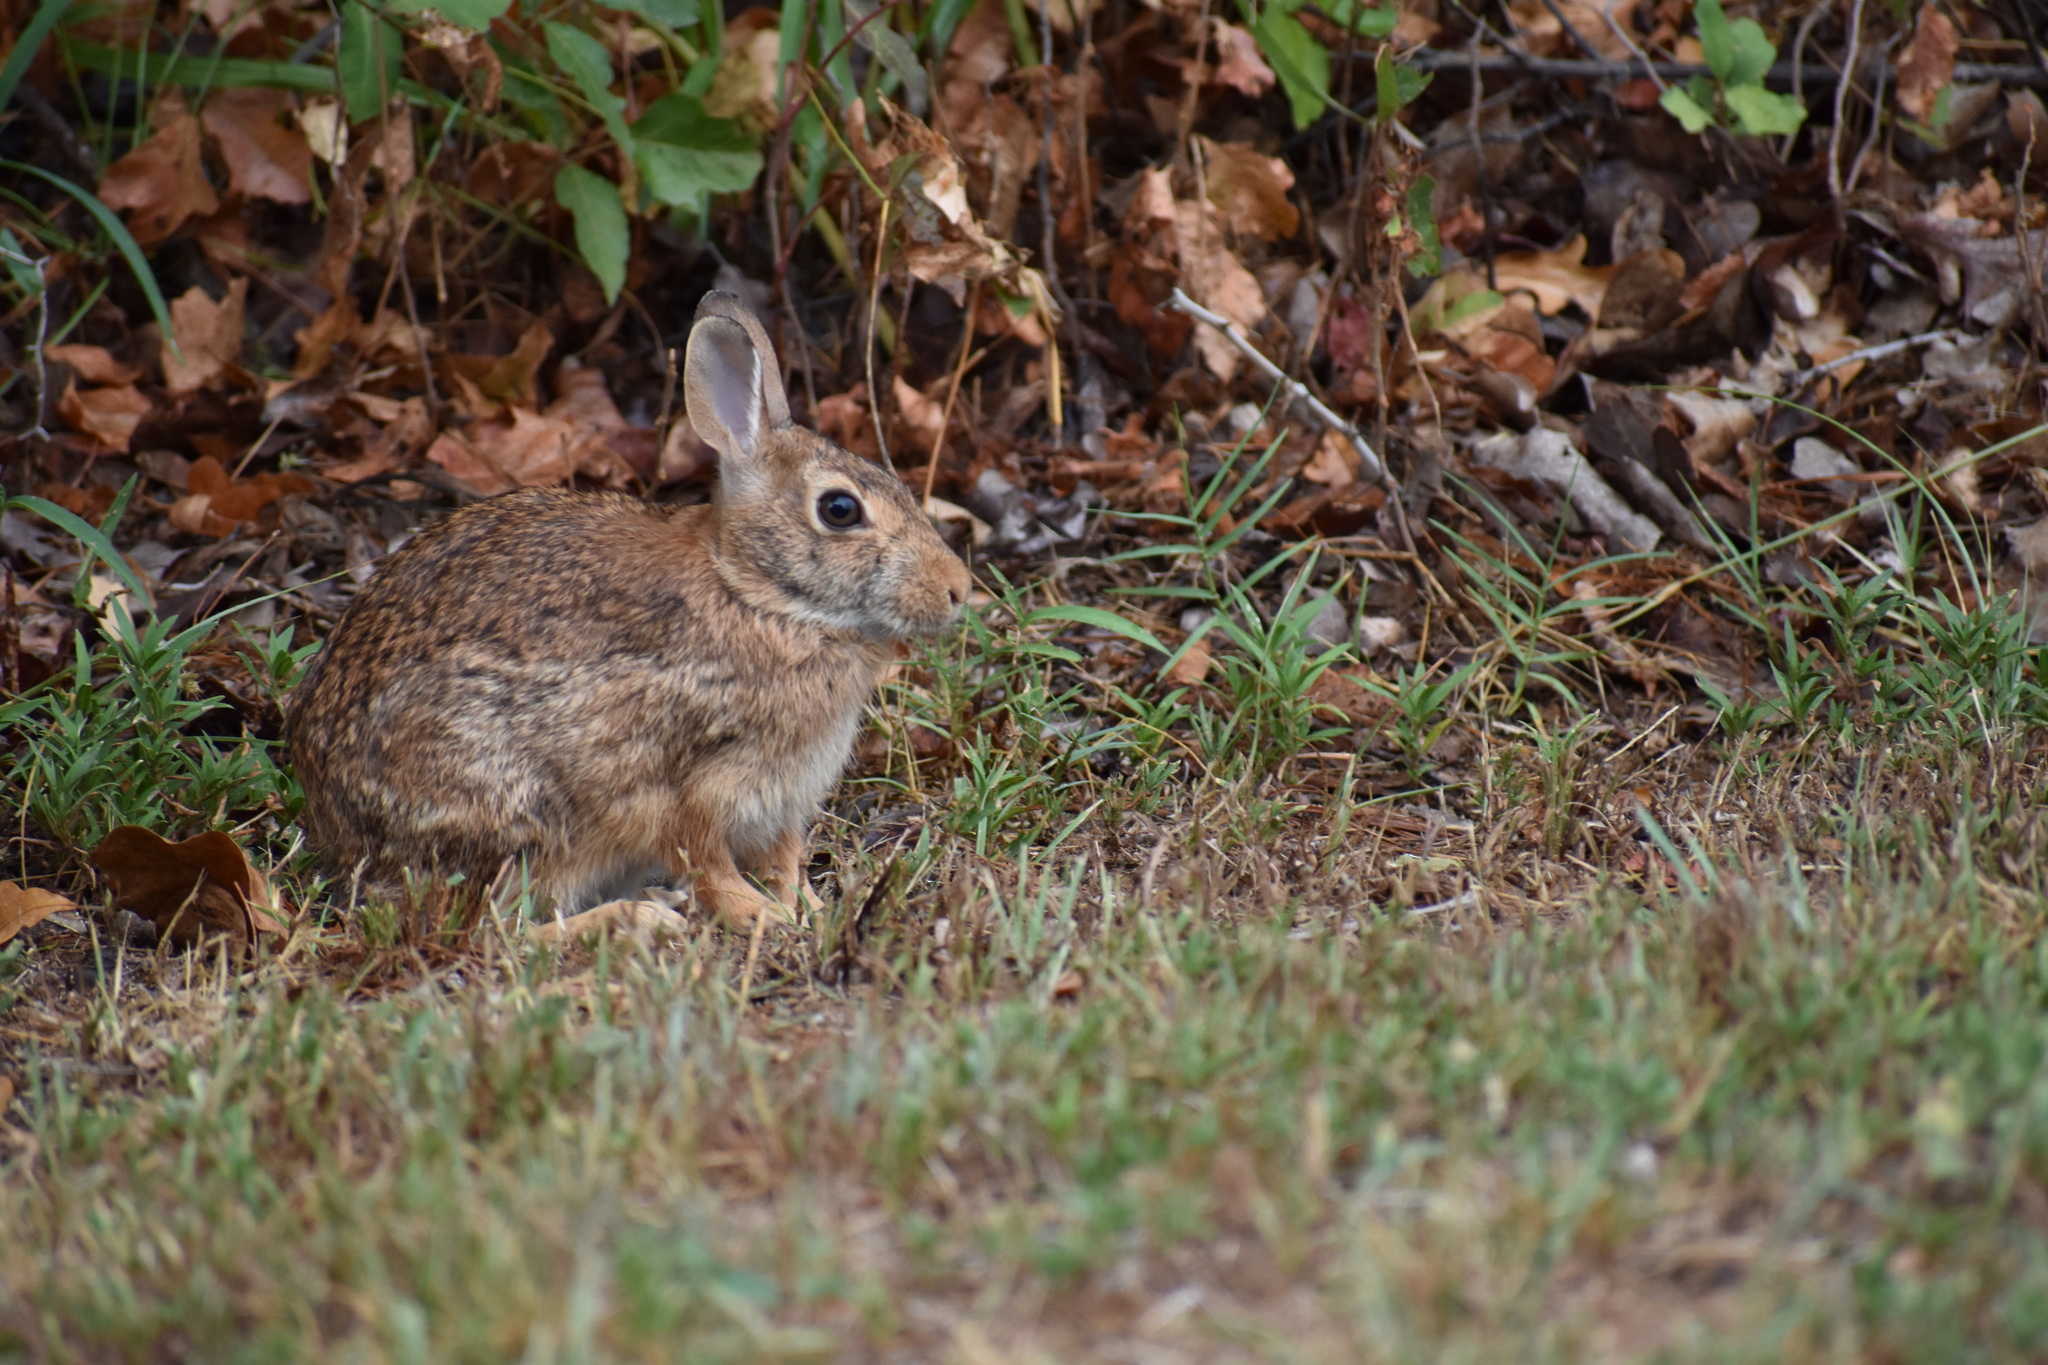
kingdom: Animalia
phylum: Chordata
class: Mammalia
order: Lagomorpha
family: Leporidae
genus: Sylvilagus
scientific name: Sylvilagus floridanus
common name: Eastern cottontail
